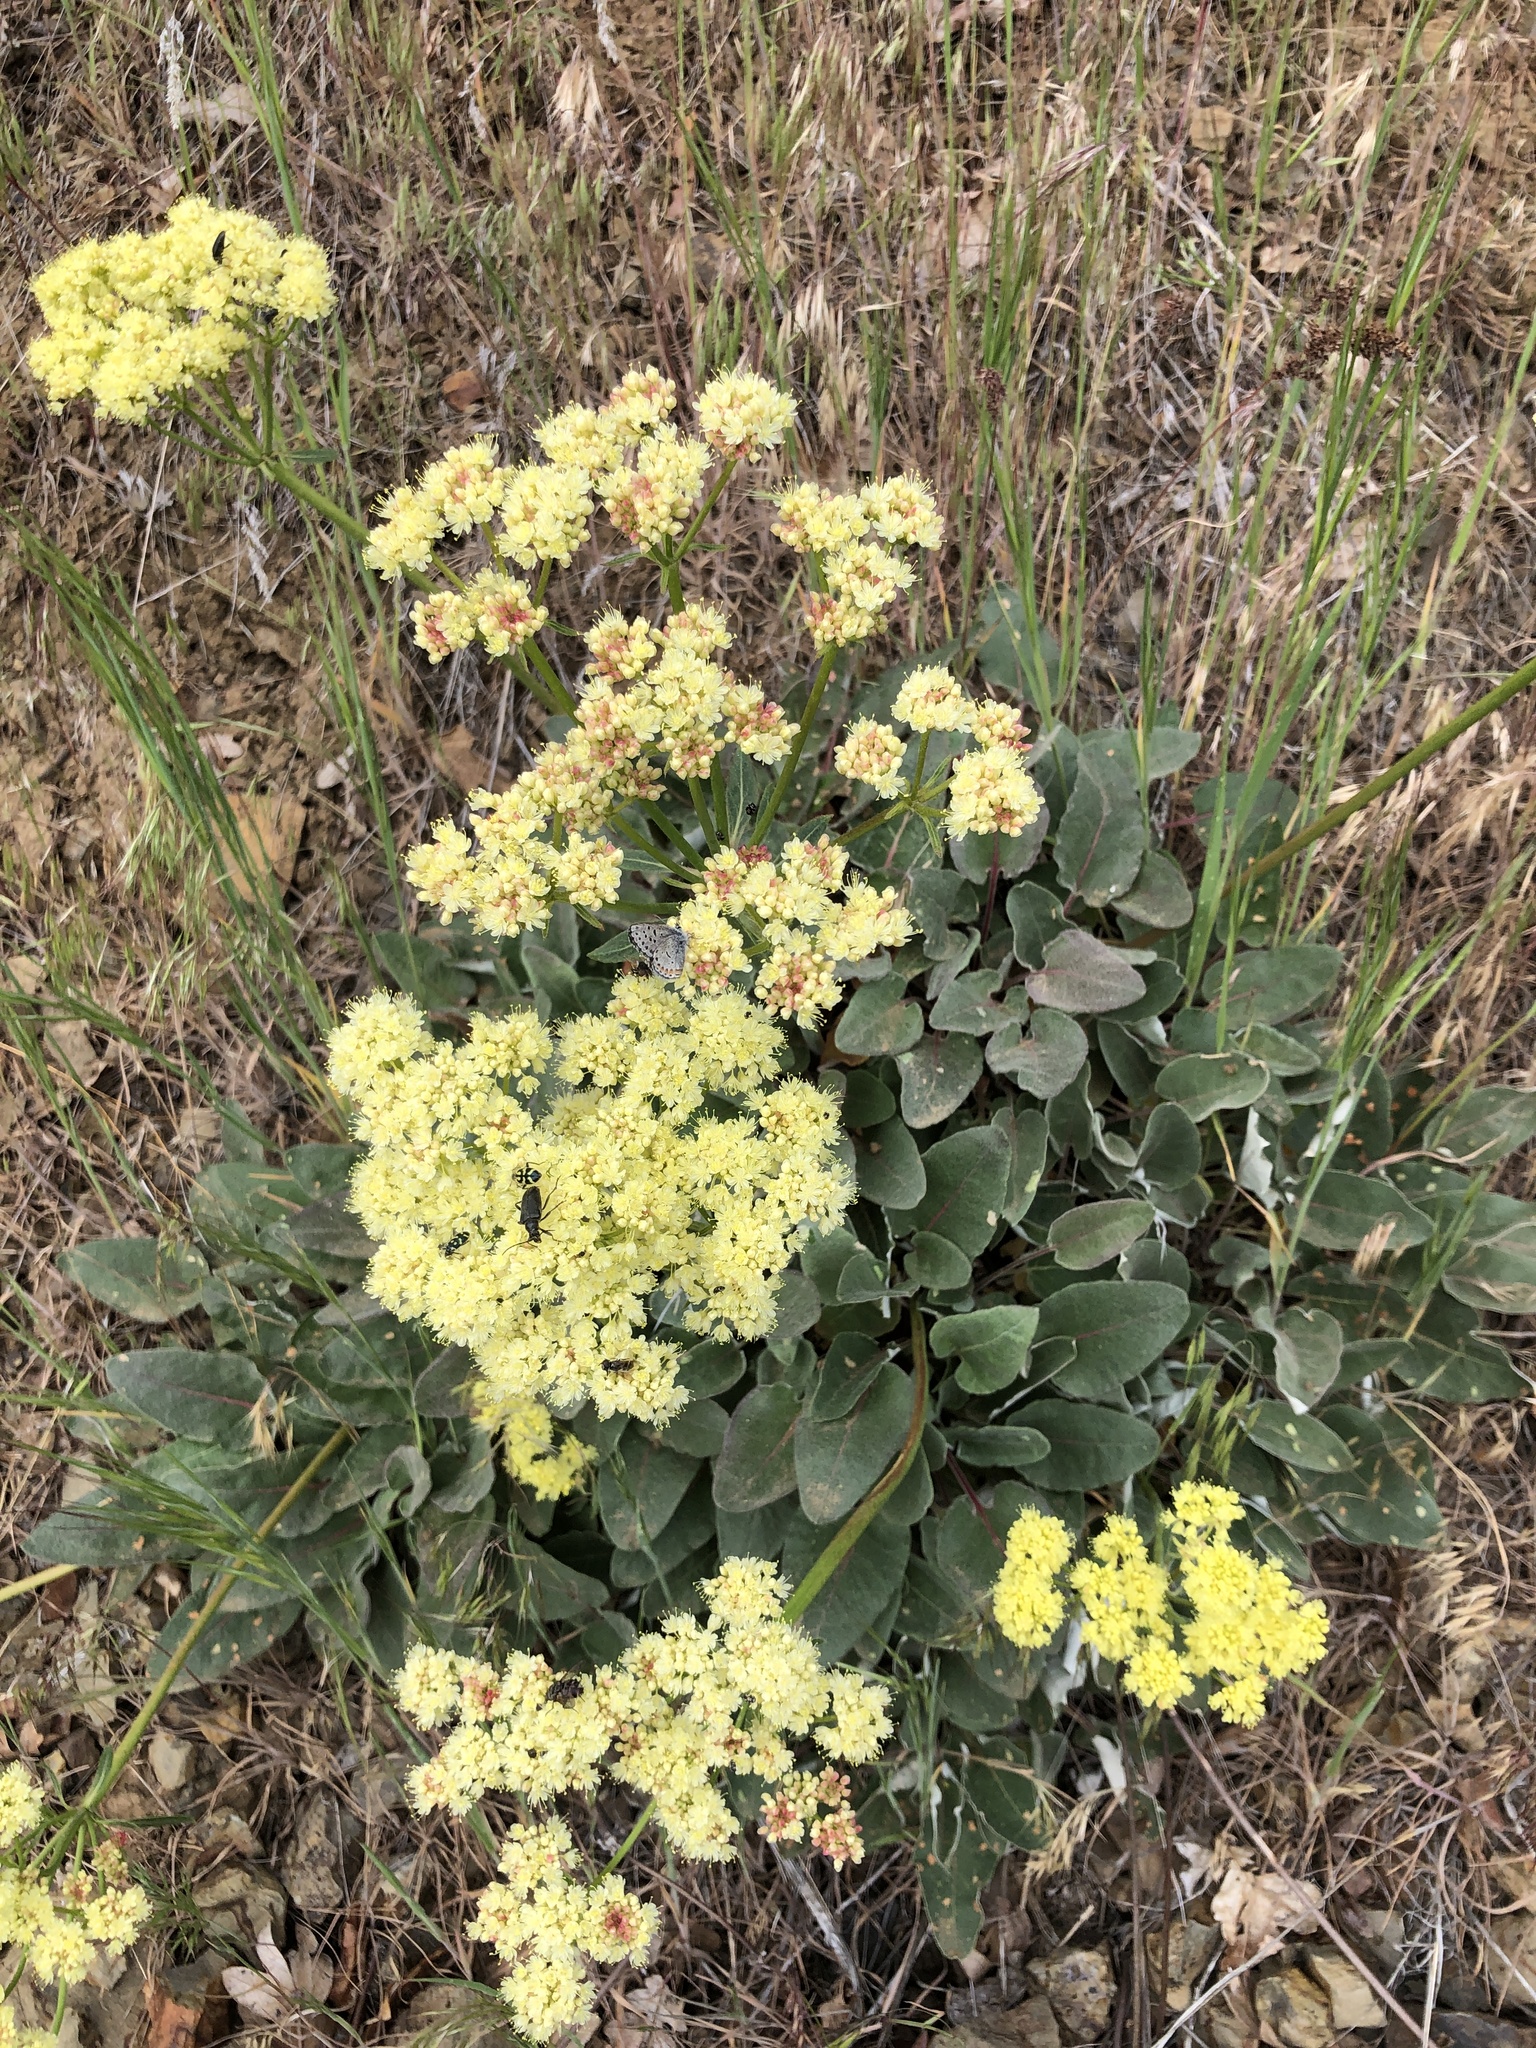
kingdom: Plantae
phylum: Tracheophyta
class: Magnoliopsida
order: Caryophyllales
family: Polygonaceae
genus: Eriogonum
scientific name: Eriogonum compositum
